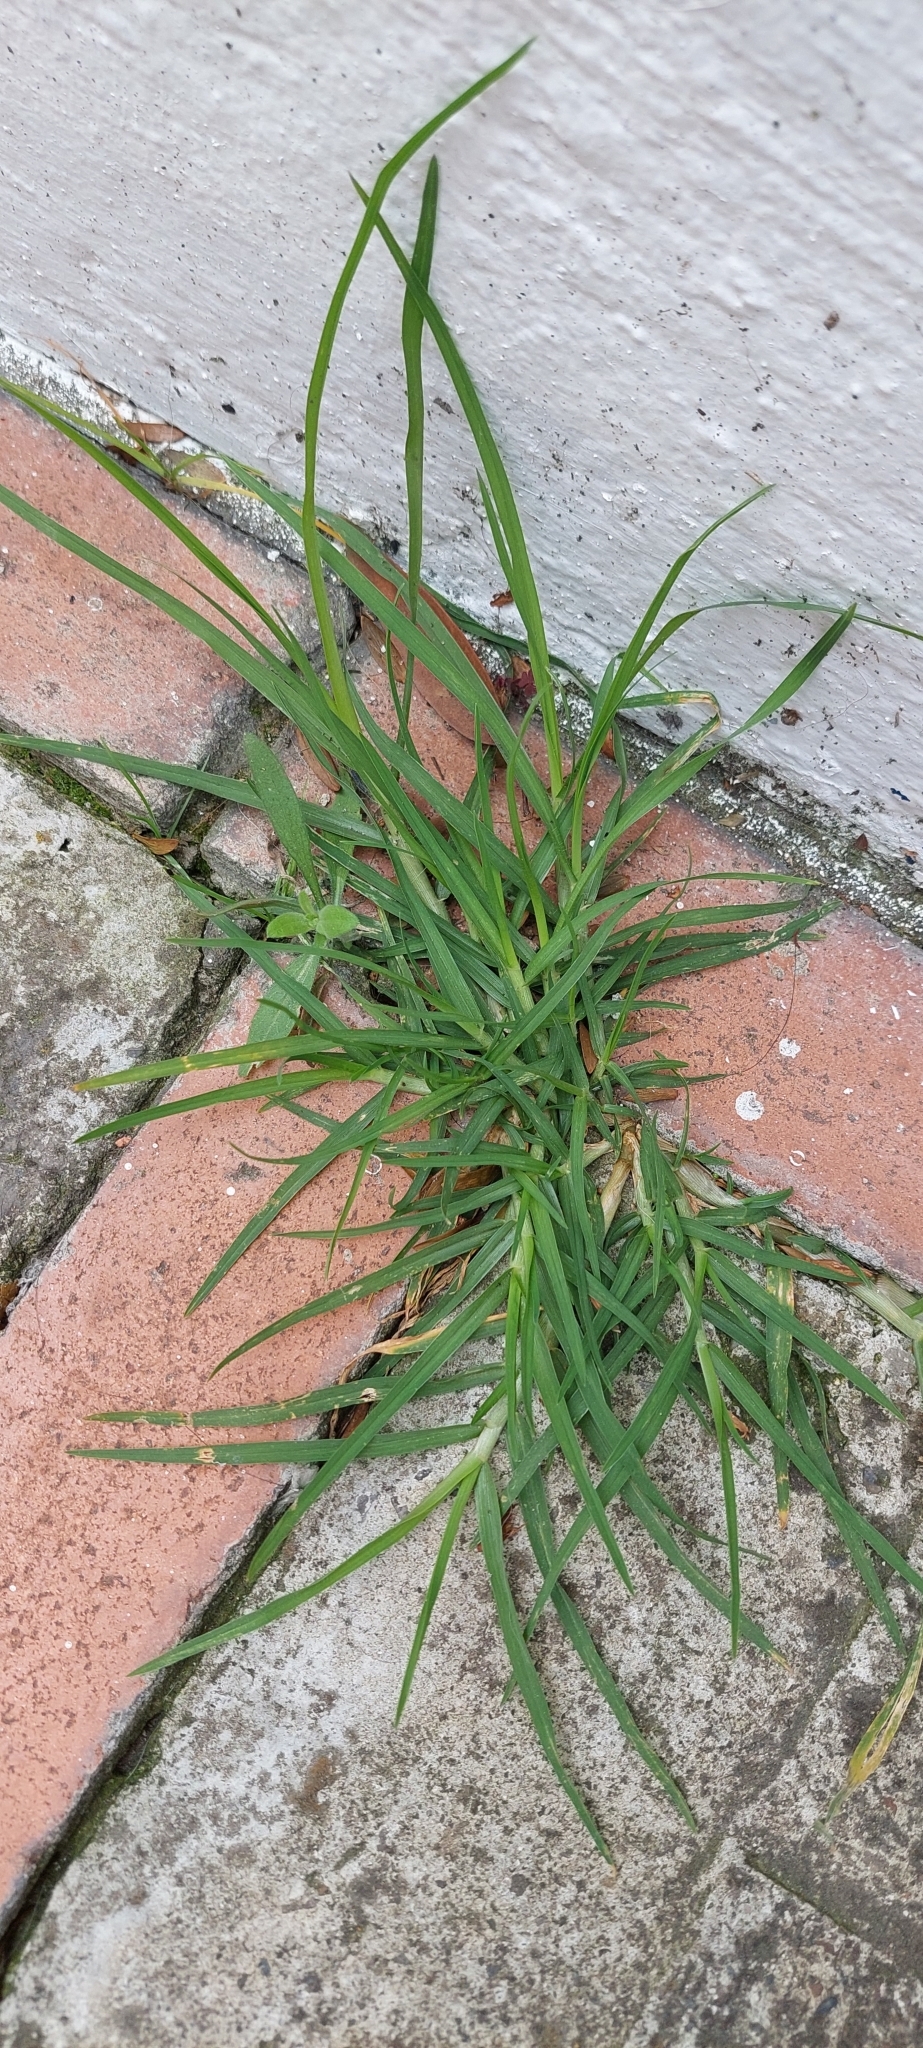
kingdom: Plantae
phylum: Tracheophyta
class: Liliopsida
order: Poales
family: Poaceae
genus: Cenchrus
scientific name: Cenchrus clandestinus
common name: Kikuyugrass
